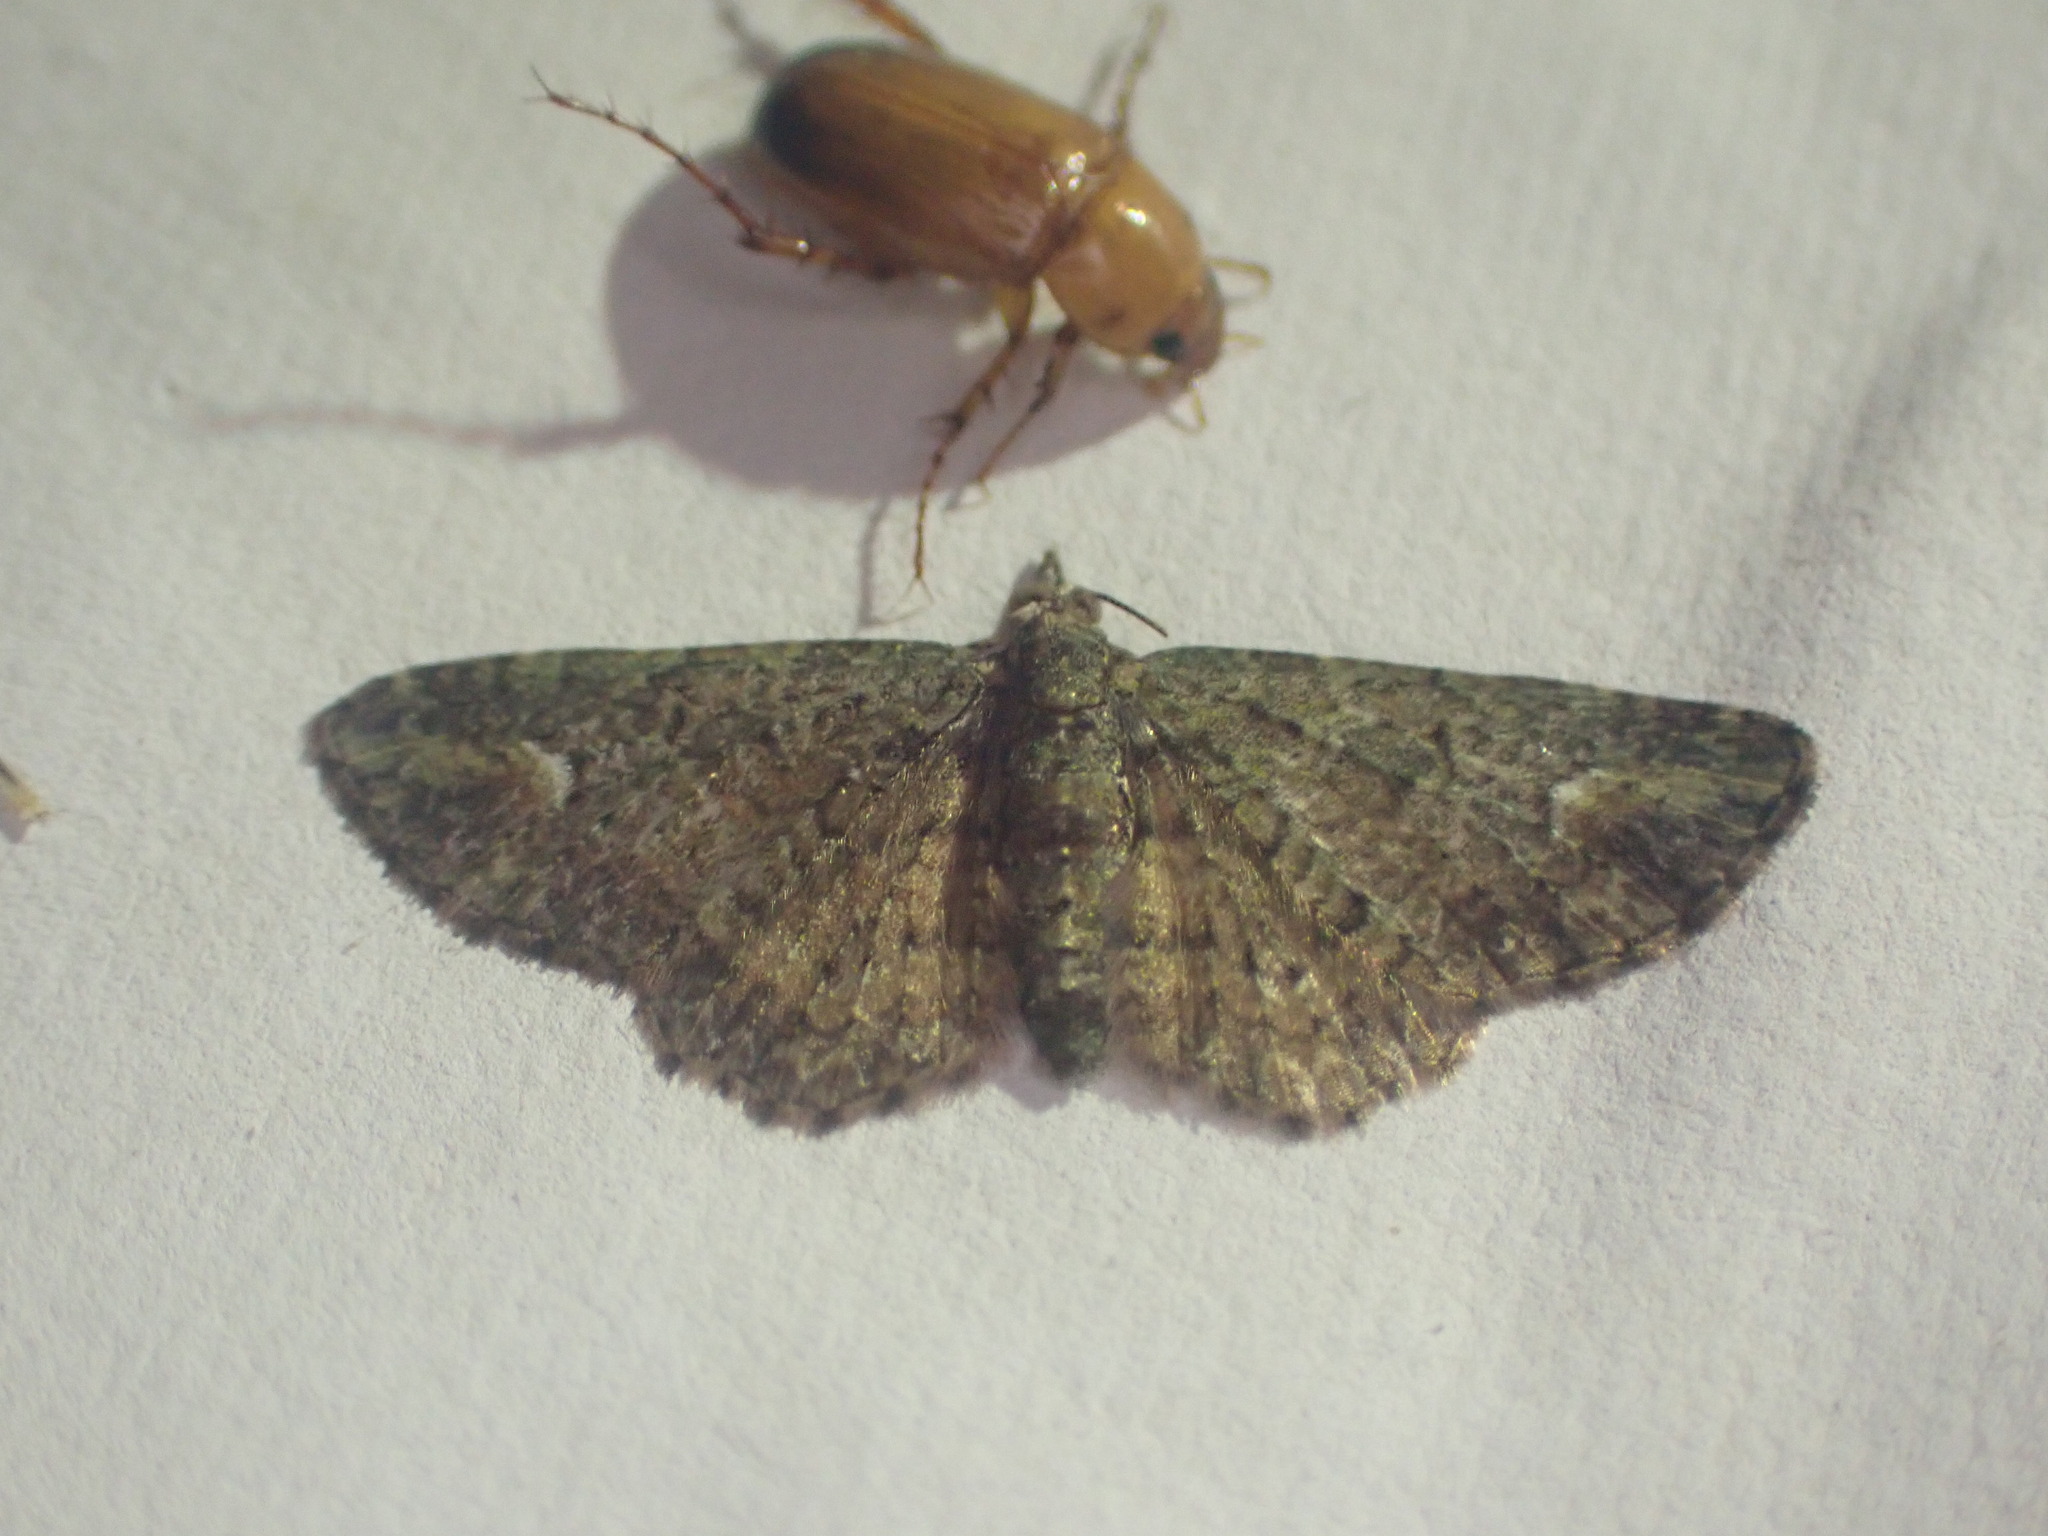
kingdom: Animalia
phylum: Arthropoda
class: Insecta
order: Lepidoptera
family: Geometridae
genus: Pasiphilodes
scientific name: Pasiphilodes testulata
